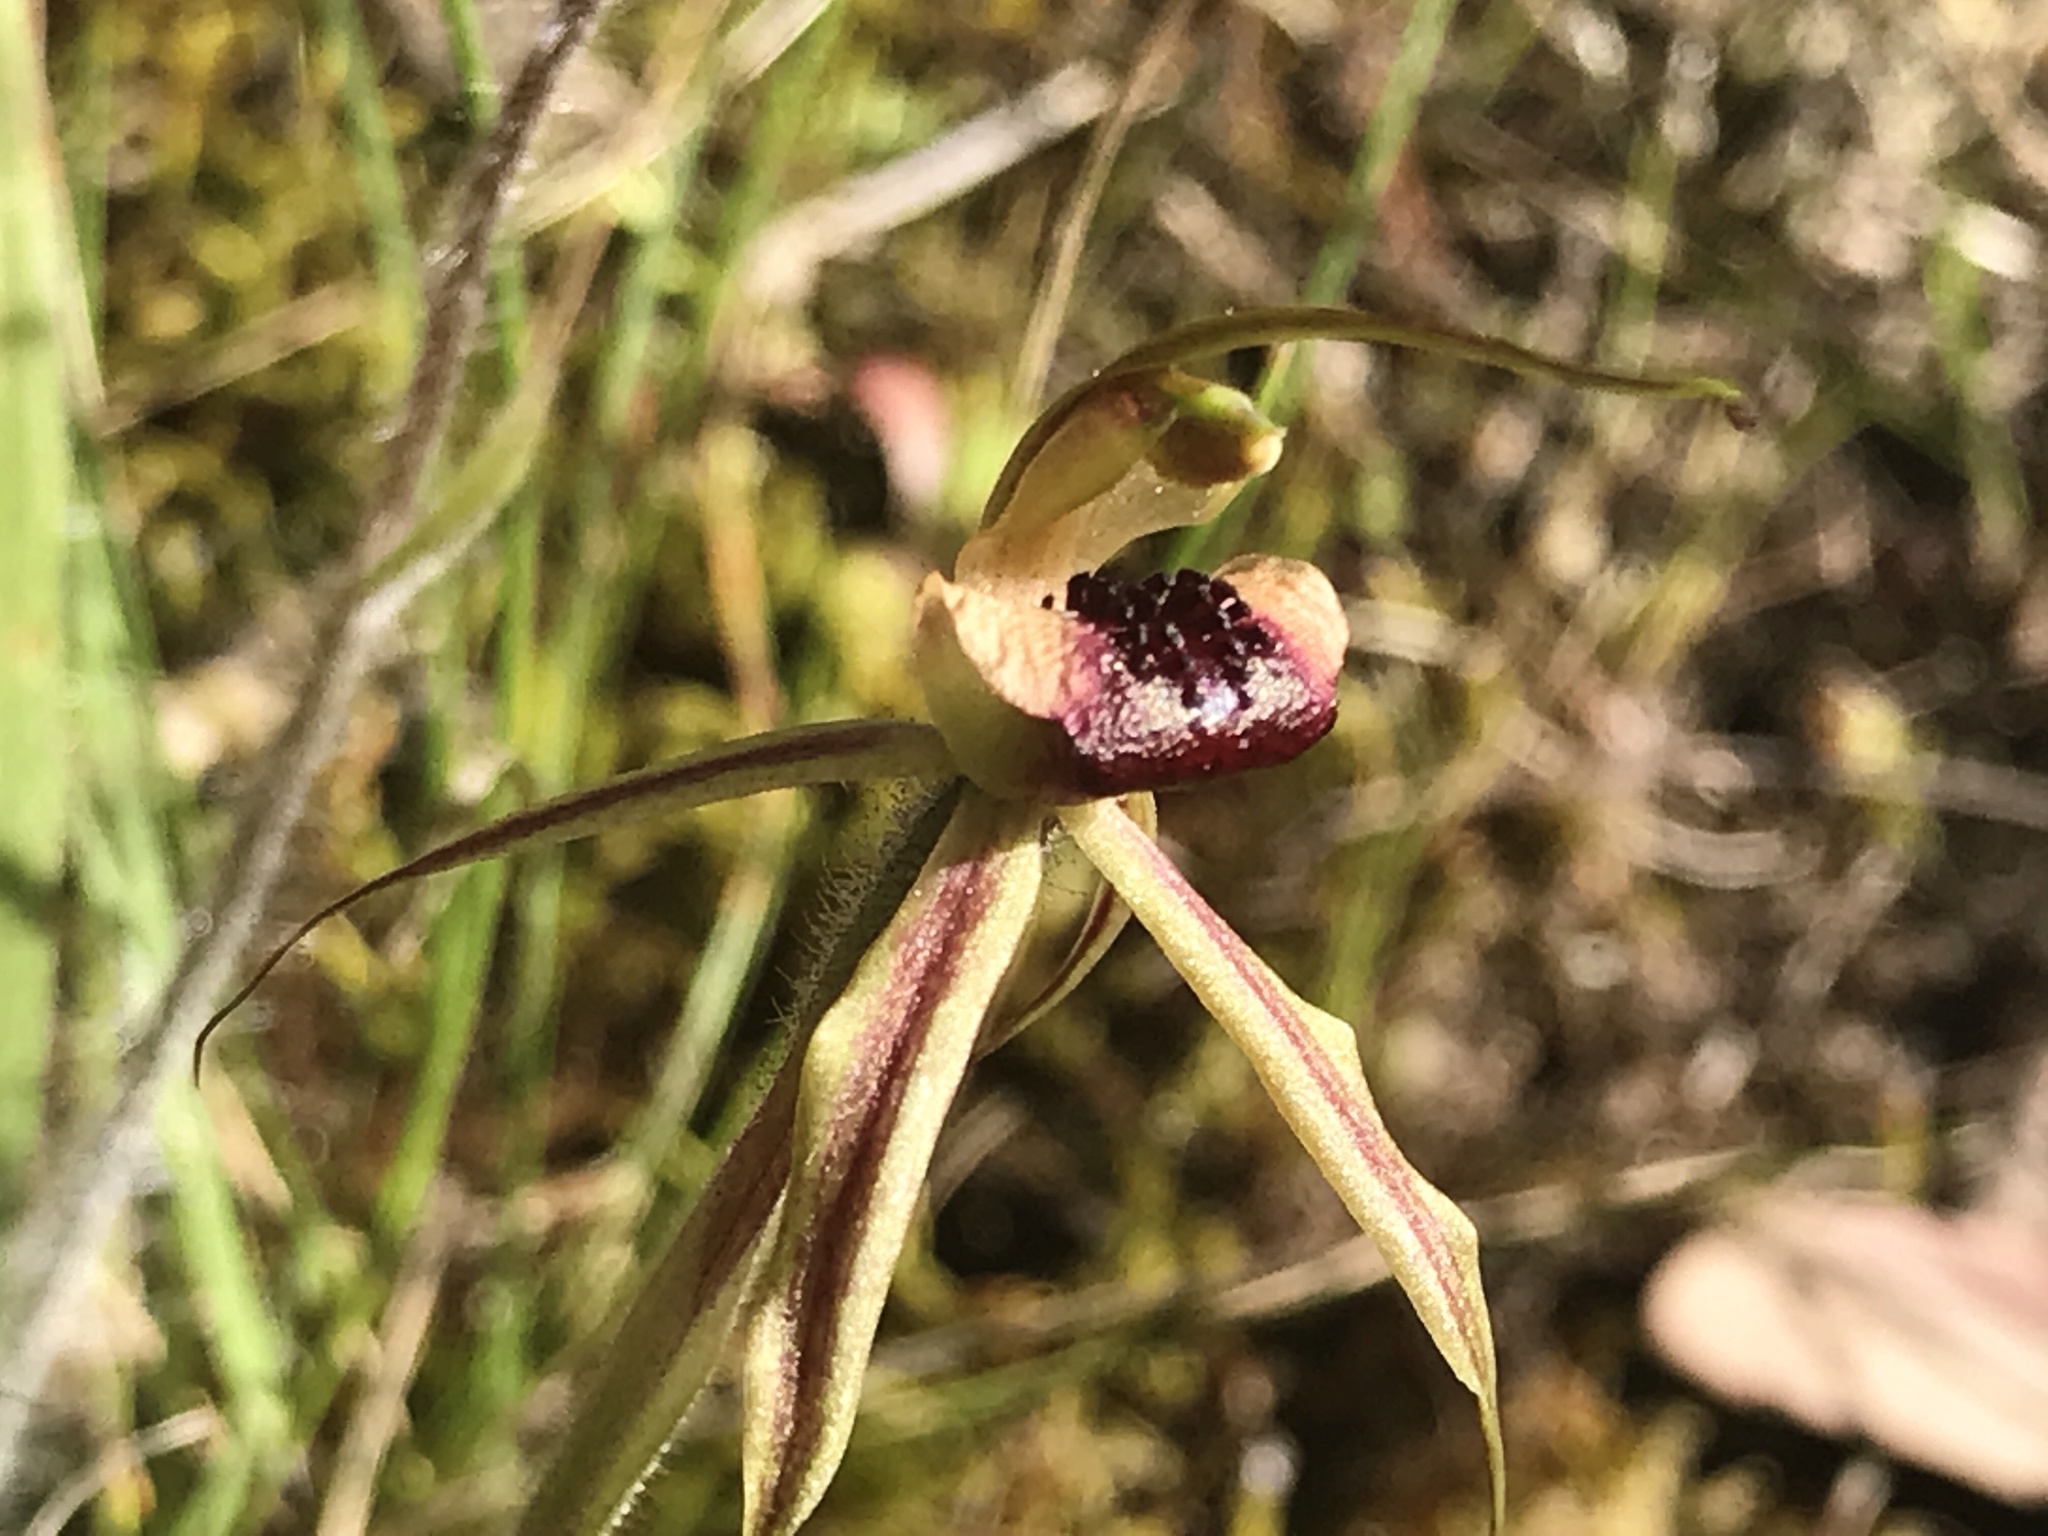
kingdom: Plantae
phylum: Tracheophyta
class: Liliopsida
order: Asparagales
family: Orchidaceae
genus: Caladenia
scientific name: Caladenia clavigera
